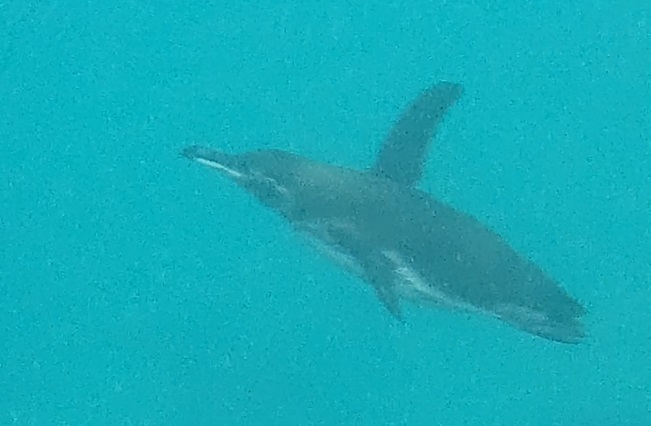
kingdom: Animalia
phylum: Chordata
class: Aves
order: Sphenisciformes
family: Spheniscidae
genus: Spheniscus
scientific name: Spheniscus mendiculus
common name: Galapagos penguin
